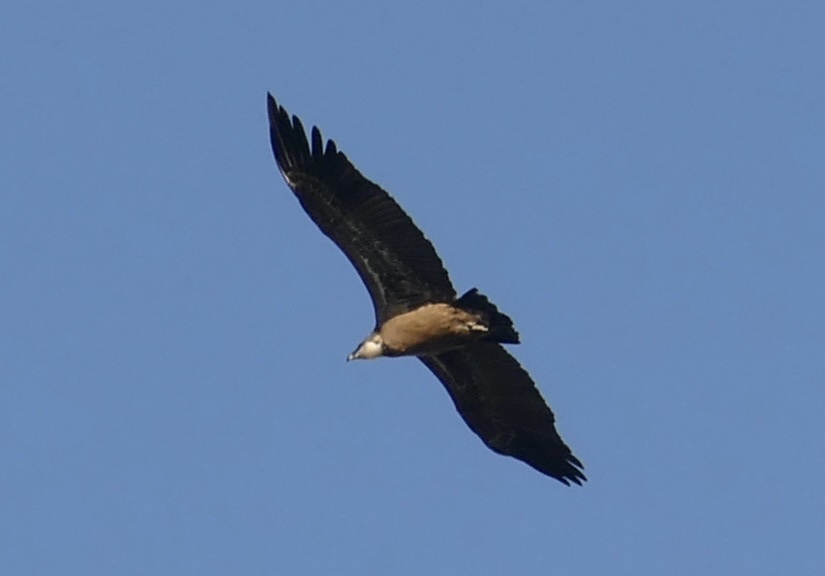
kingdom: Animalia
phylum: Chordata
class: Aves
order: Accipitriformes
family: Accipitridae
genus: Gyps
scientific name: Gyps fulvus
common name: Griffon vulture
